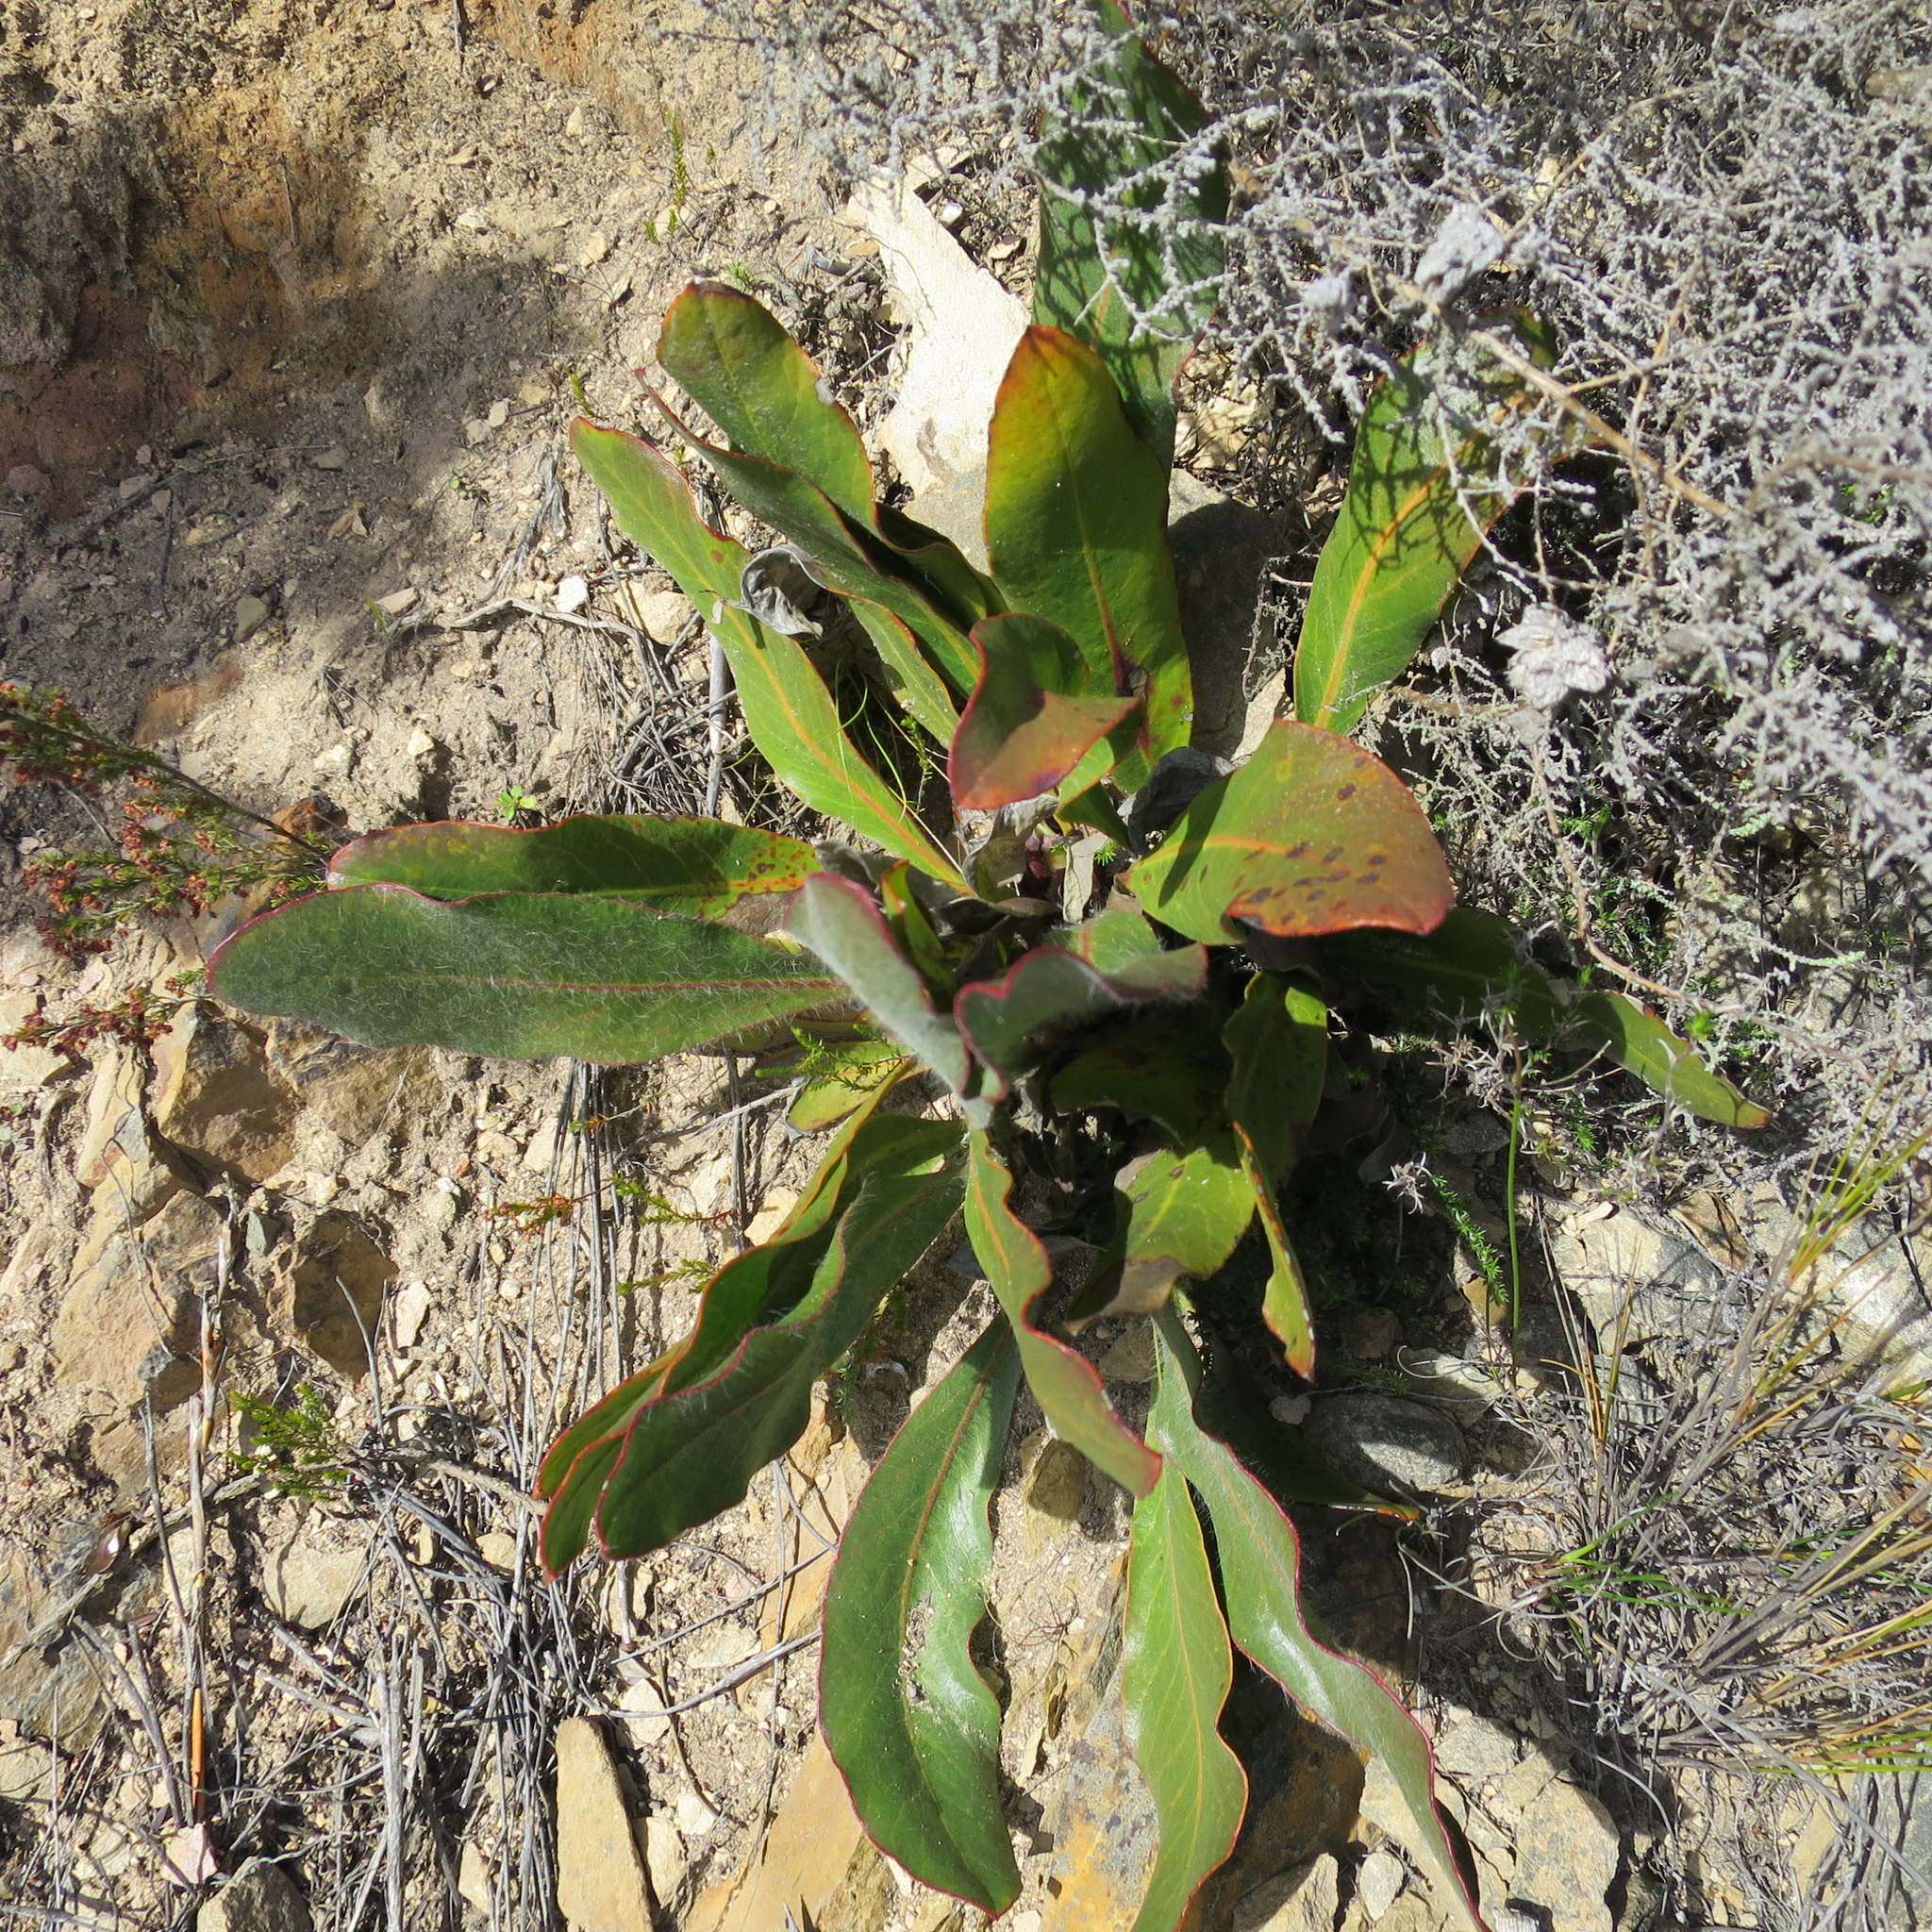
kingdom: Plantae
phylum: Tracheophyta
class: Magnoliopsida
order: Proteales
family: Proteaceae
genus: Protea
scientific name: Protea scolopendriifolia
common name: Harts-tongue-fern sugarbush
